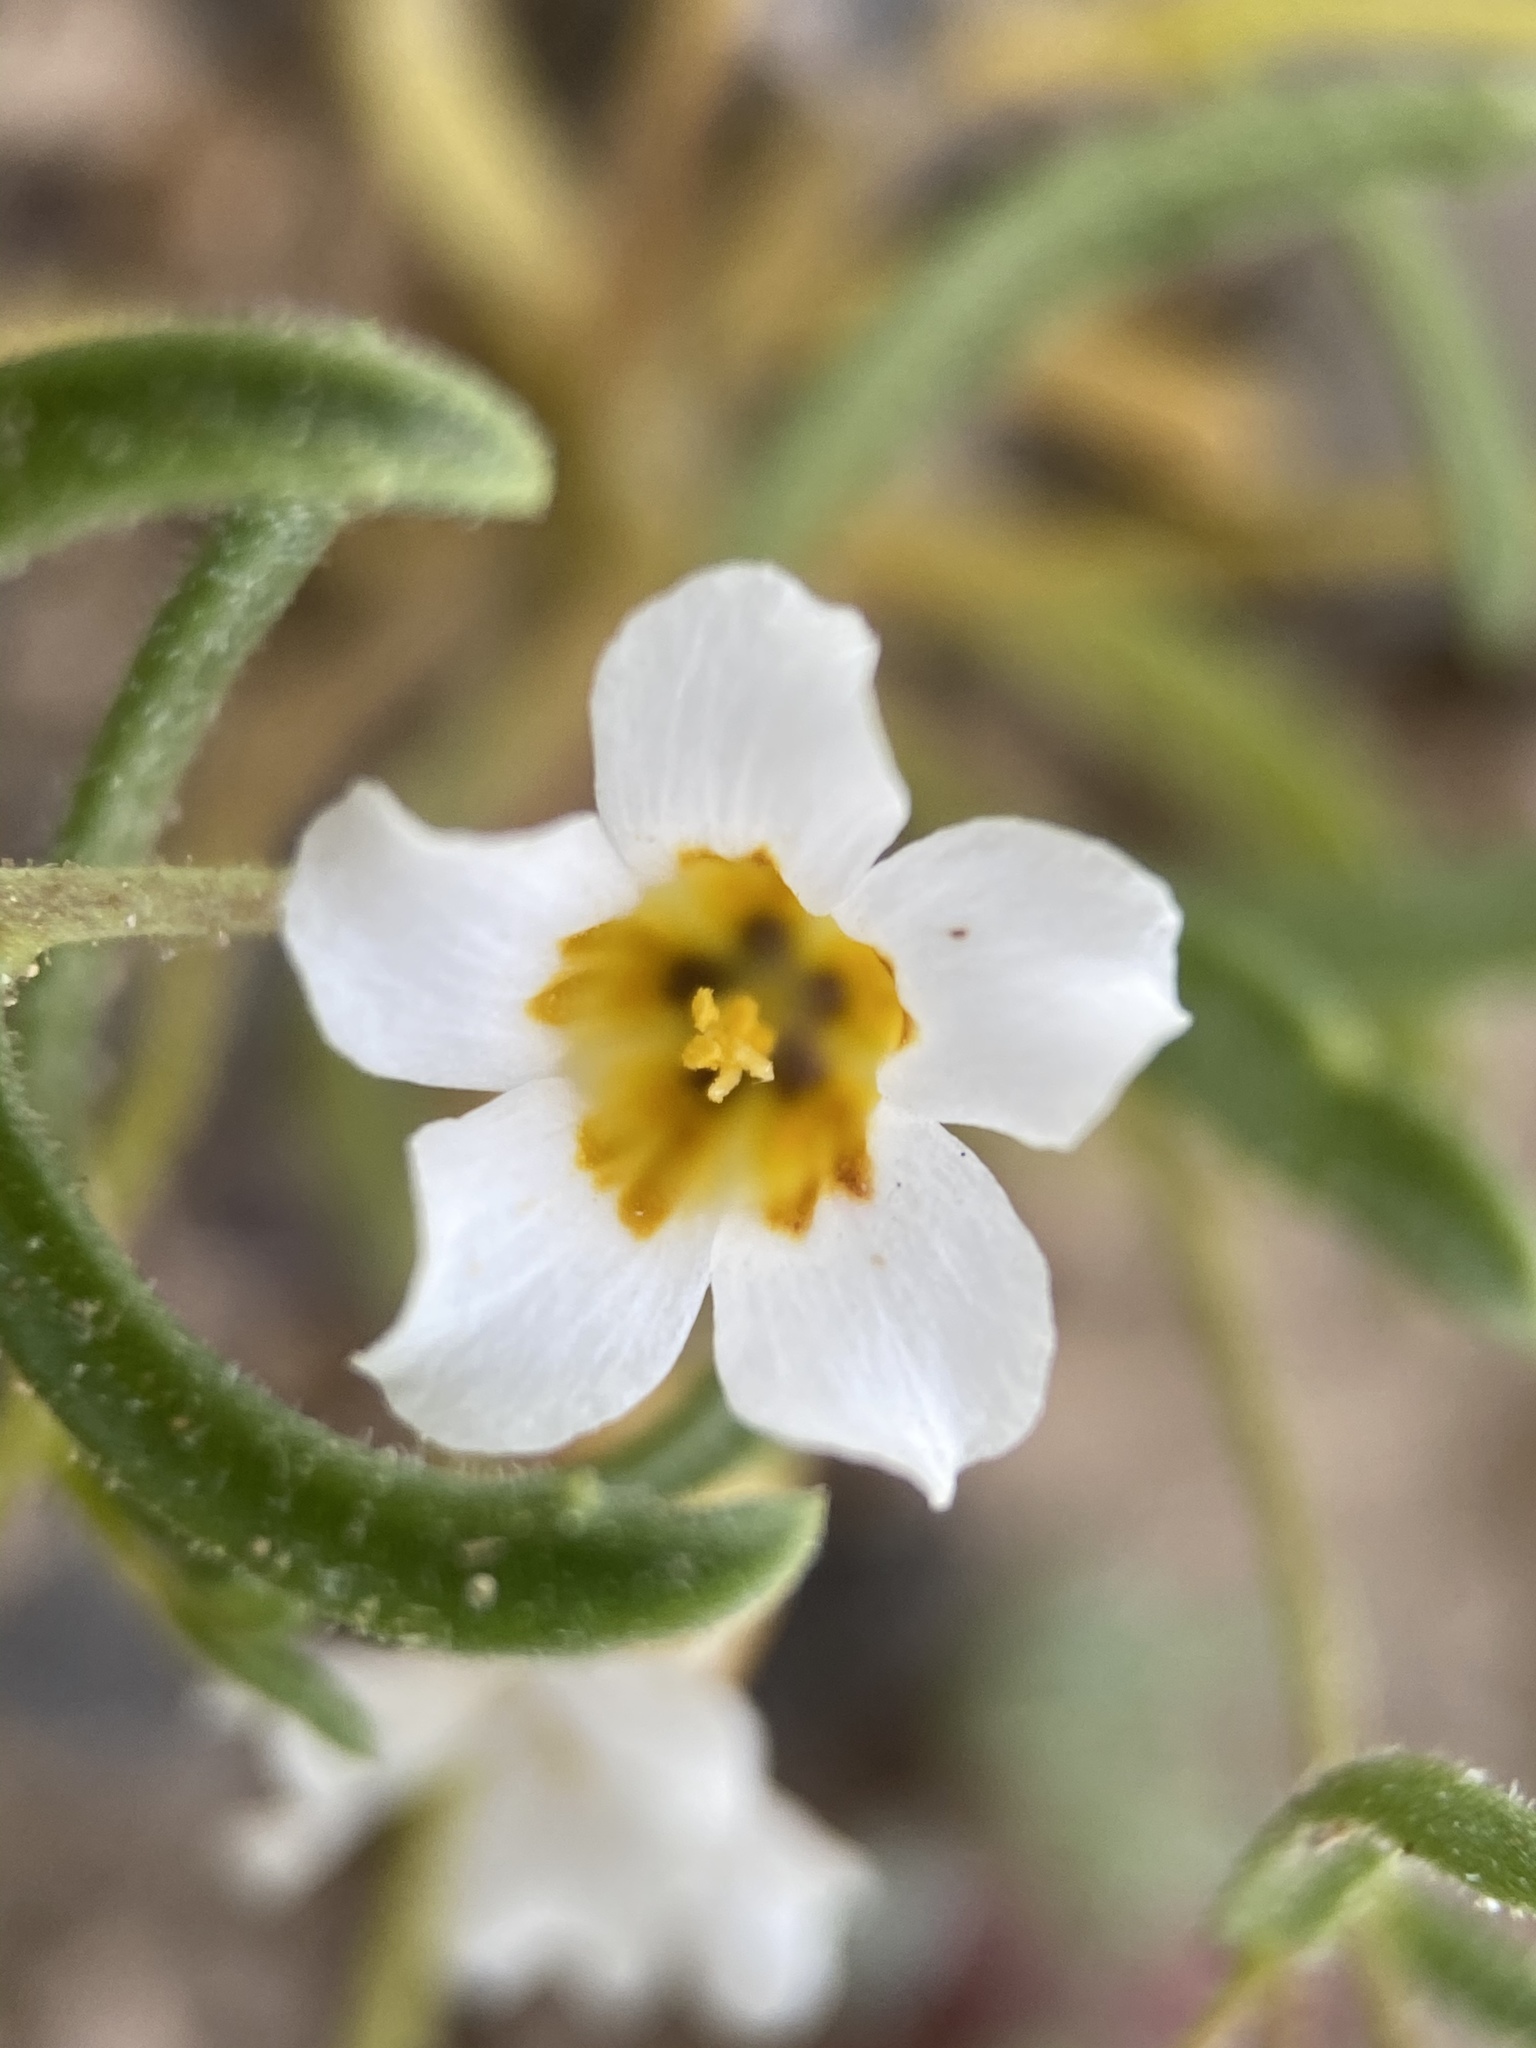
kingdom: Plantae
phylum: Tracheophyta
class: Magnoliopsida
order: Ericales
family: Polemoniaceae
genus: Linanthus
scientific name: Linanthus campanulatus
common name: Bellshape gilia
